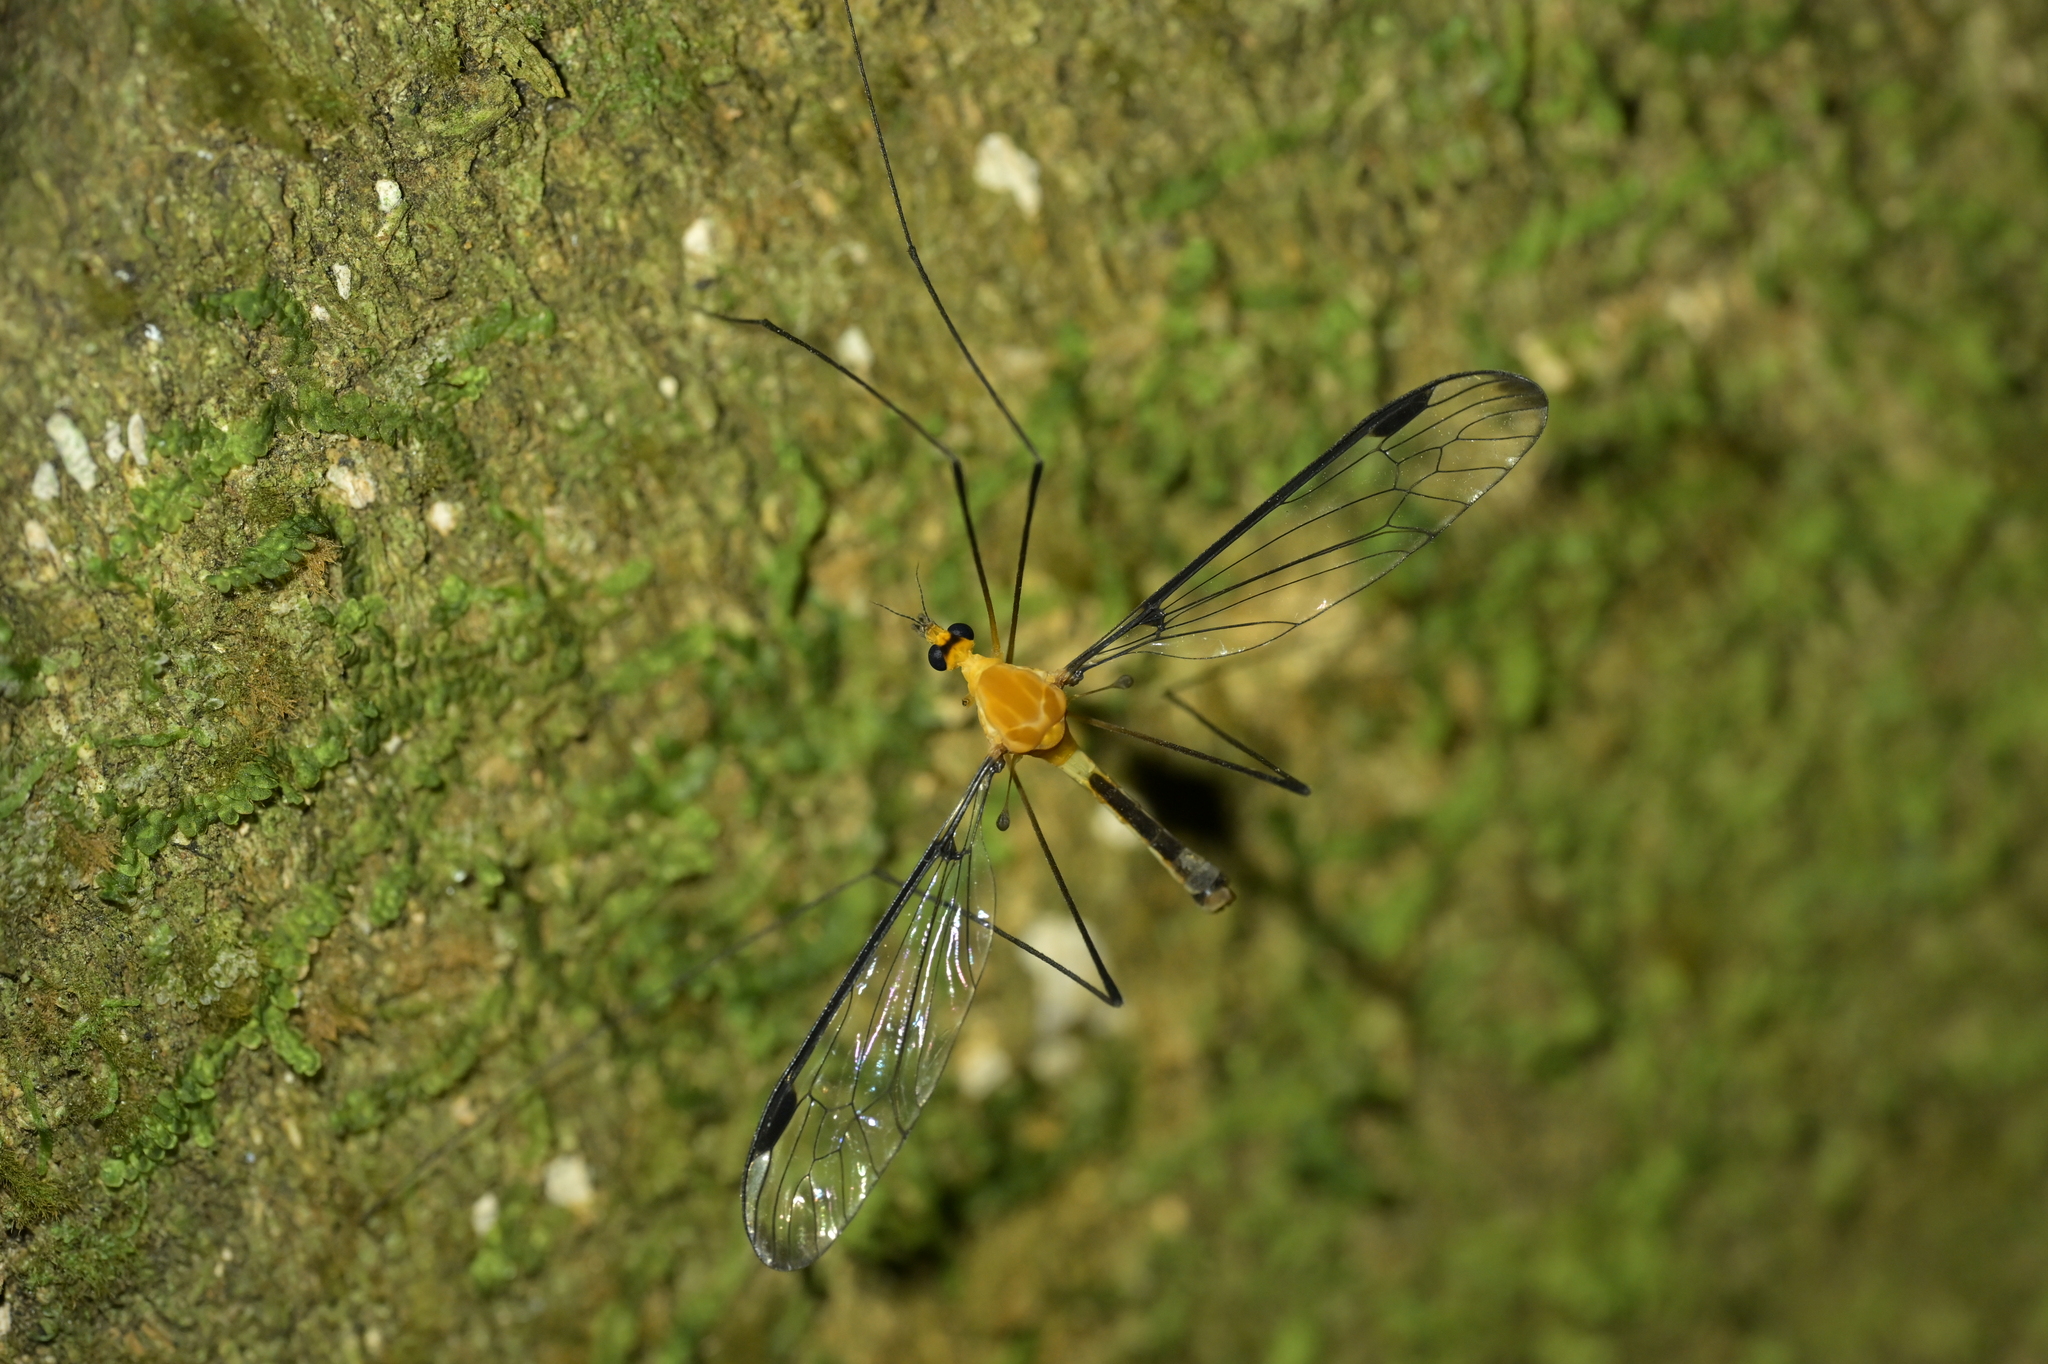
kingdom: Animalia
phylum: Arthropoda
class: Insecta
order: Diptera
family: Tipulidae
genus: Aurotipula
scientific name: Aurotipula
